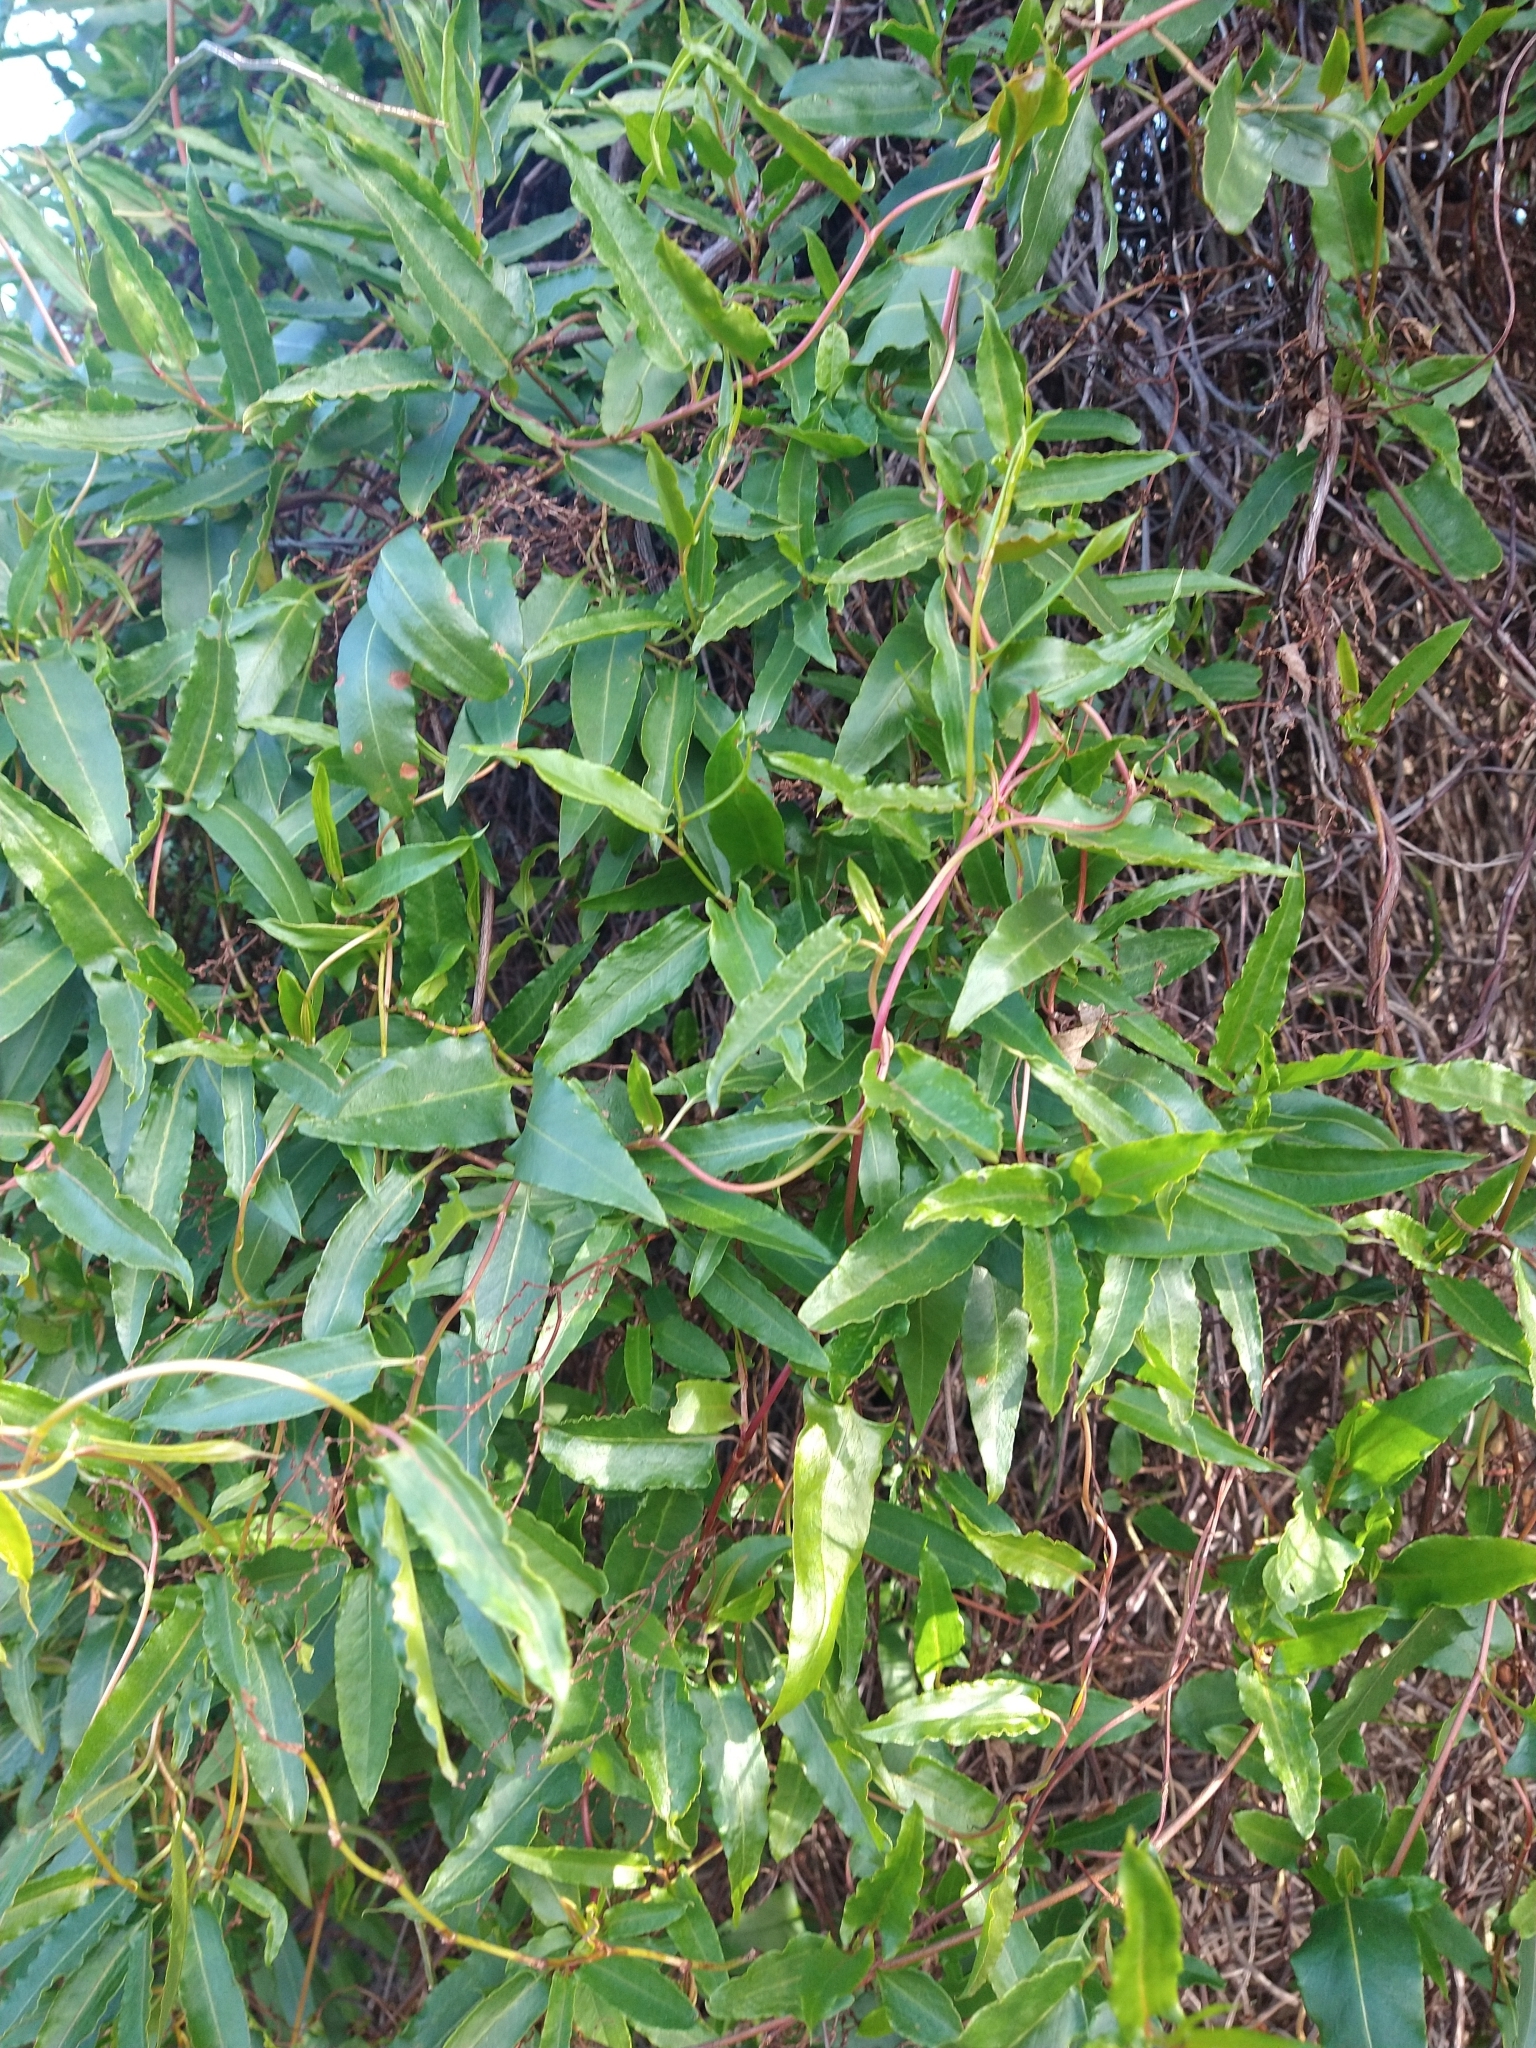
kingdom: Plantae
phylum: Tracheophyta
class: Magnoliopsida
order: Caryophyllales
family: Polygonaceae
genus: Muehlenbeckia
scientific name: Muehlenbeckia sagittifolia
